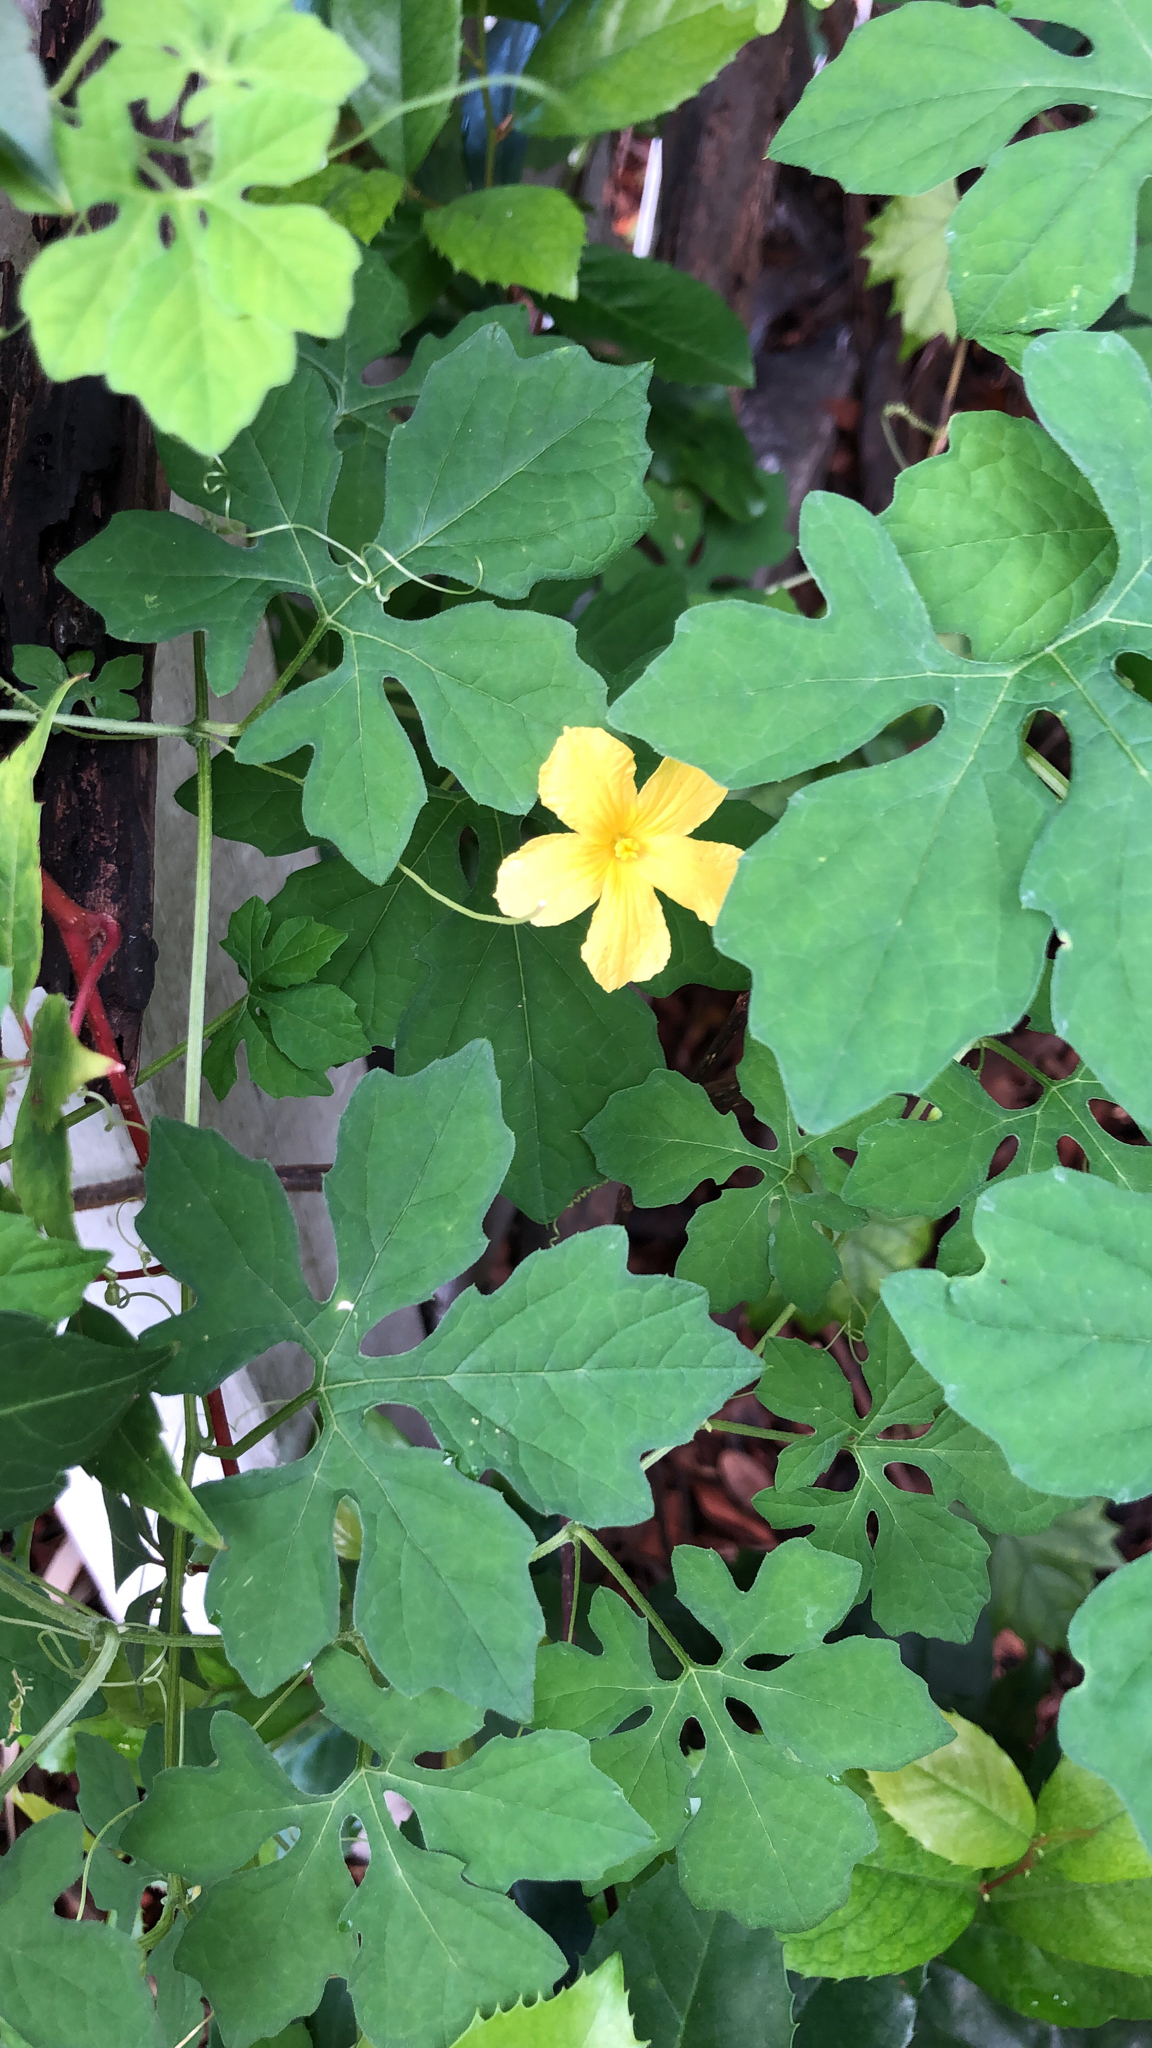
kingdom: Plantae
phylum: Tracheophyta
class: Magnoliopsida
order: Cucurbitales
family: Cucurbitaceae
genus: Momordica
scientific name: Momordica charantia
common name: Balsampear
